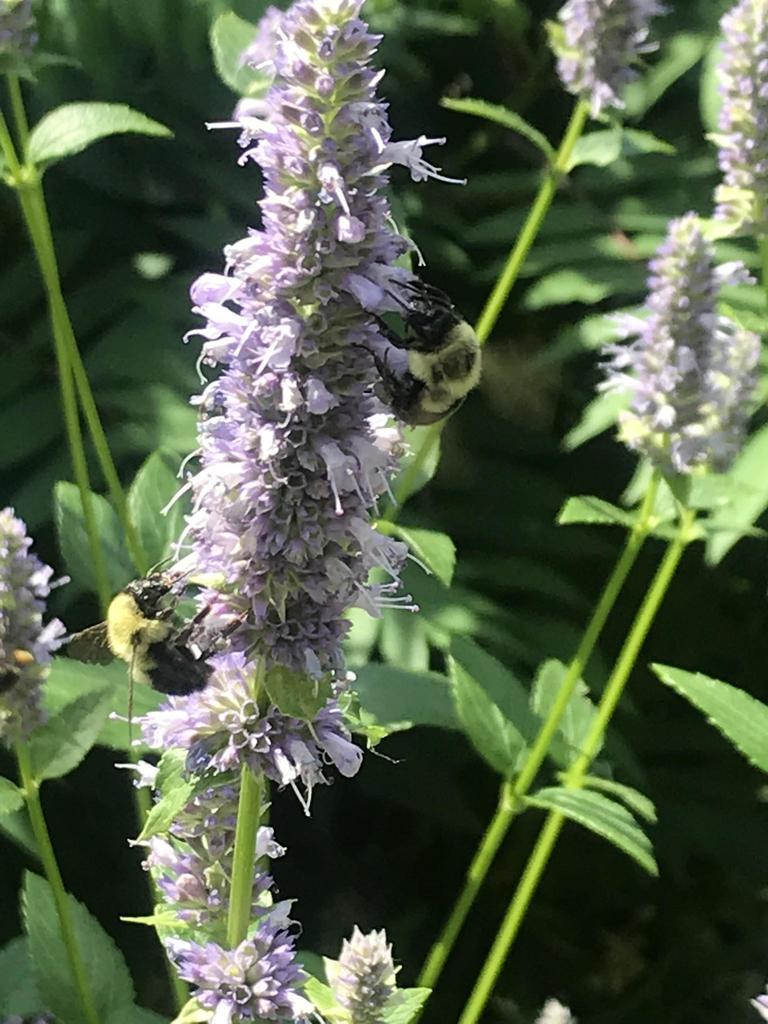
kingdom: Animalia
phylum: Arthropoda
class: Insecta
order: Hymenoptera
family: Apidae
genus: Bombus
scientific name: Bombus bimaculatus
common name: Two-spotted bumble bee
